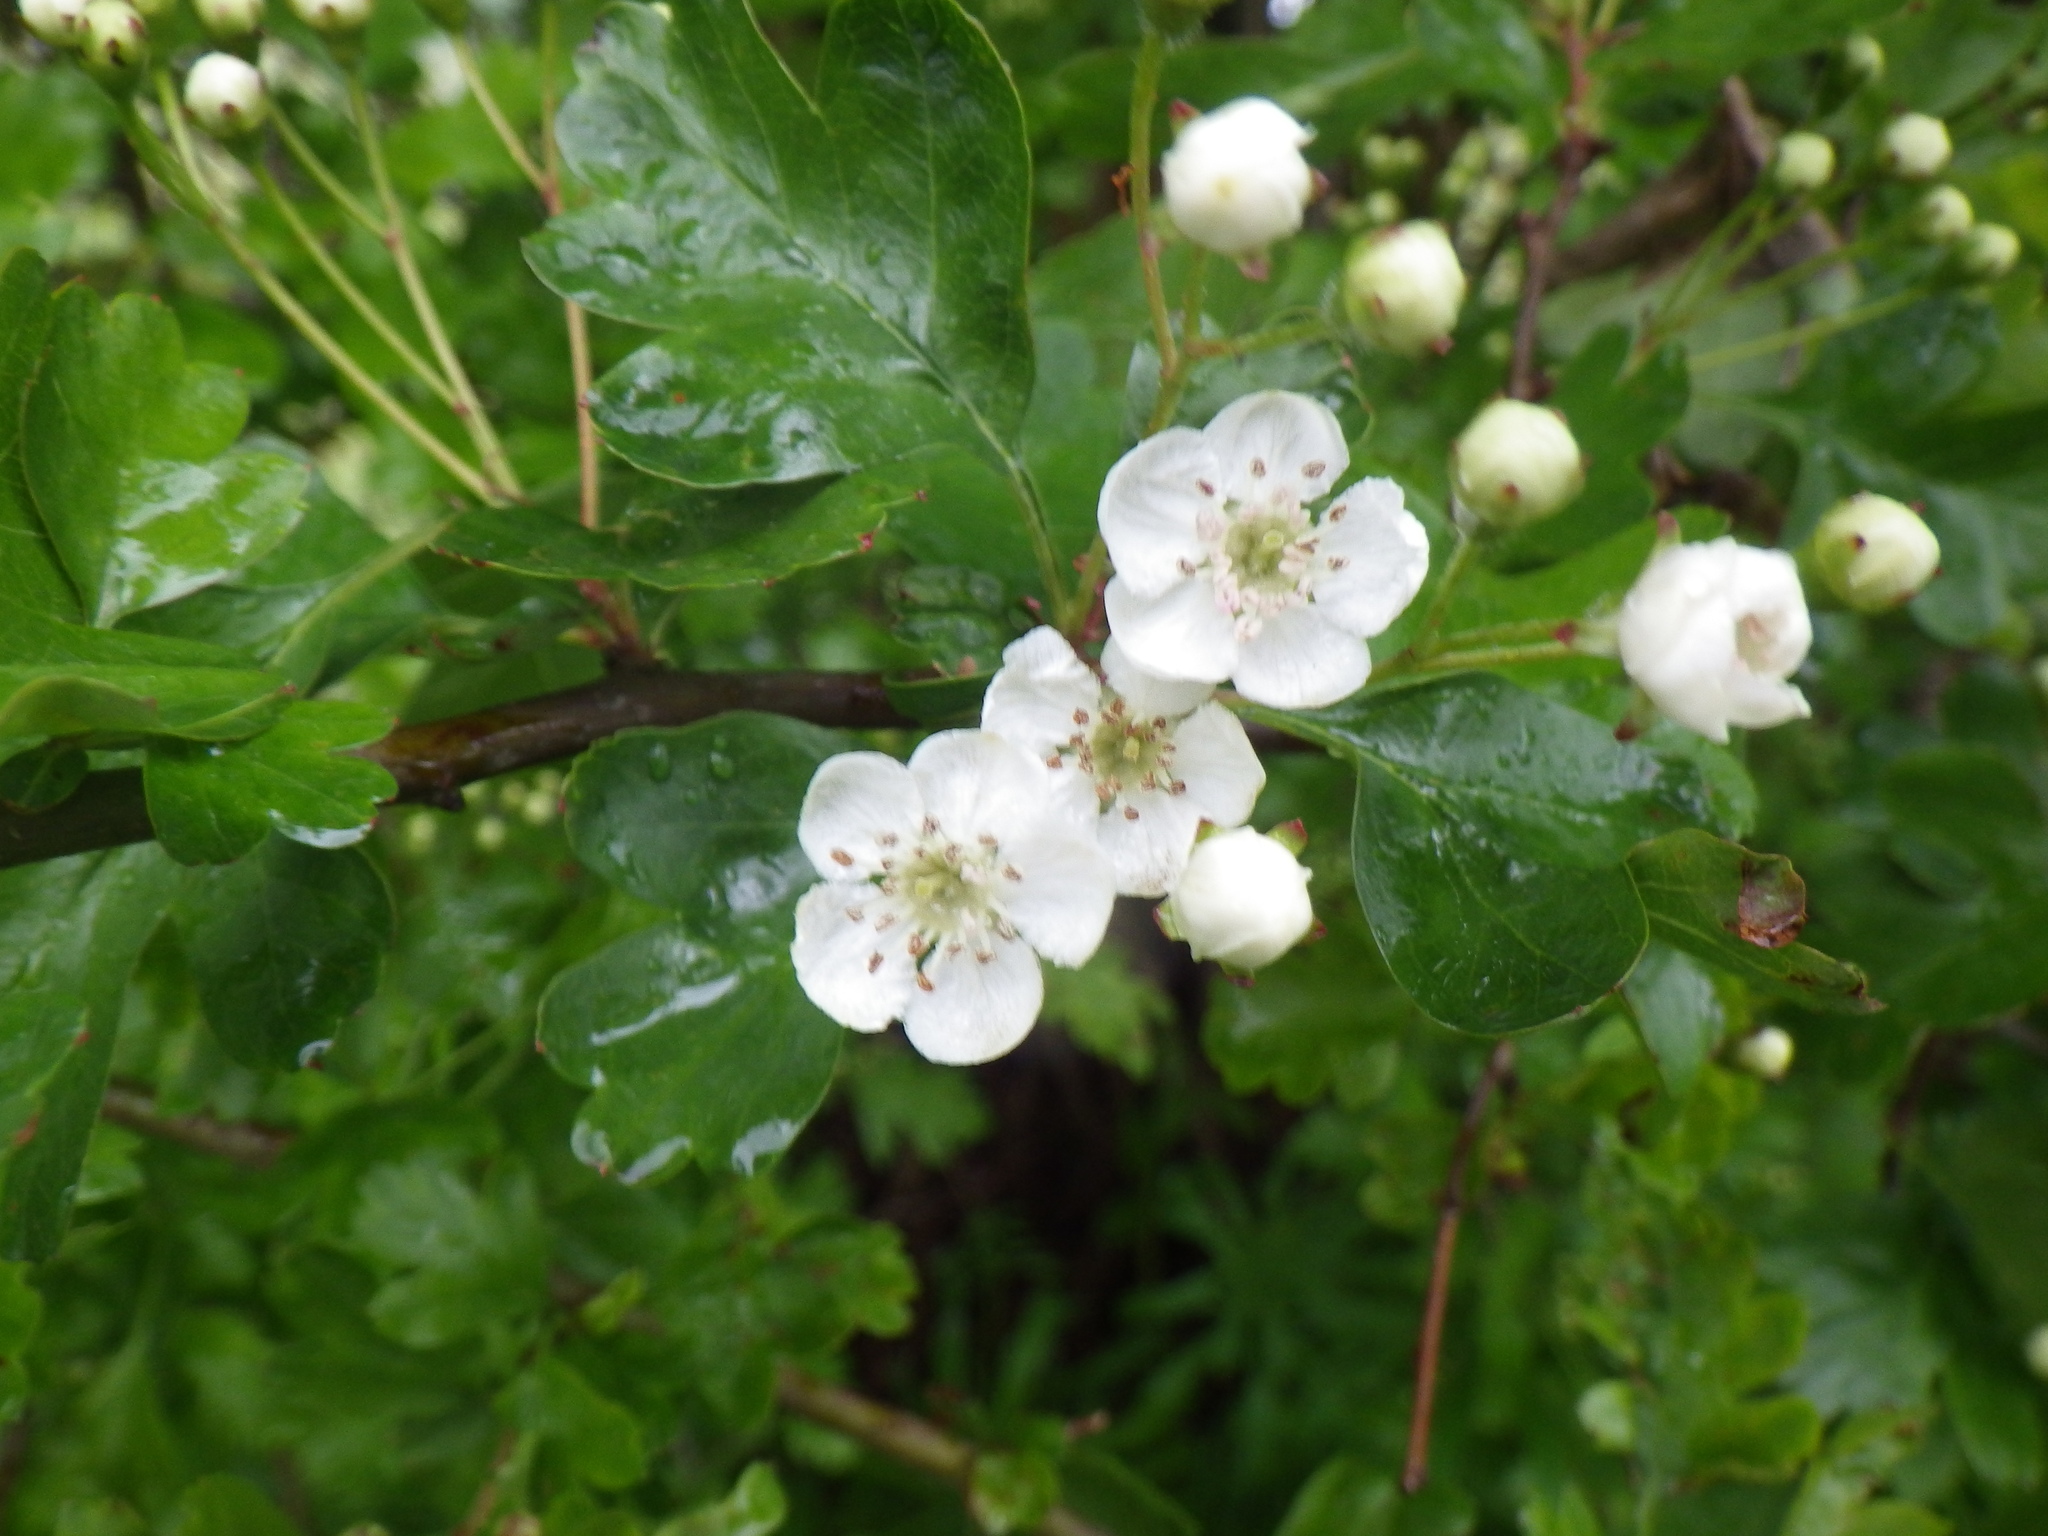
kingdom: Plantae
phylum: Tracheophyta
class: Magnoliopsida
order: Rosales
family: Rosaceae
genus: Crataegus
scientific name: Crataegus monogyna
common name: Hawthorn
